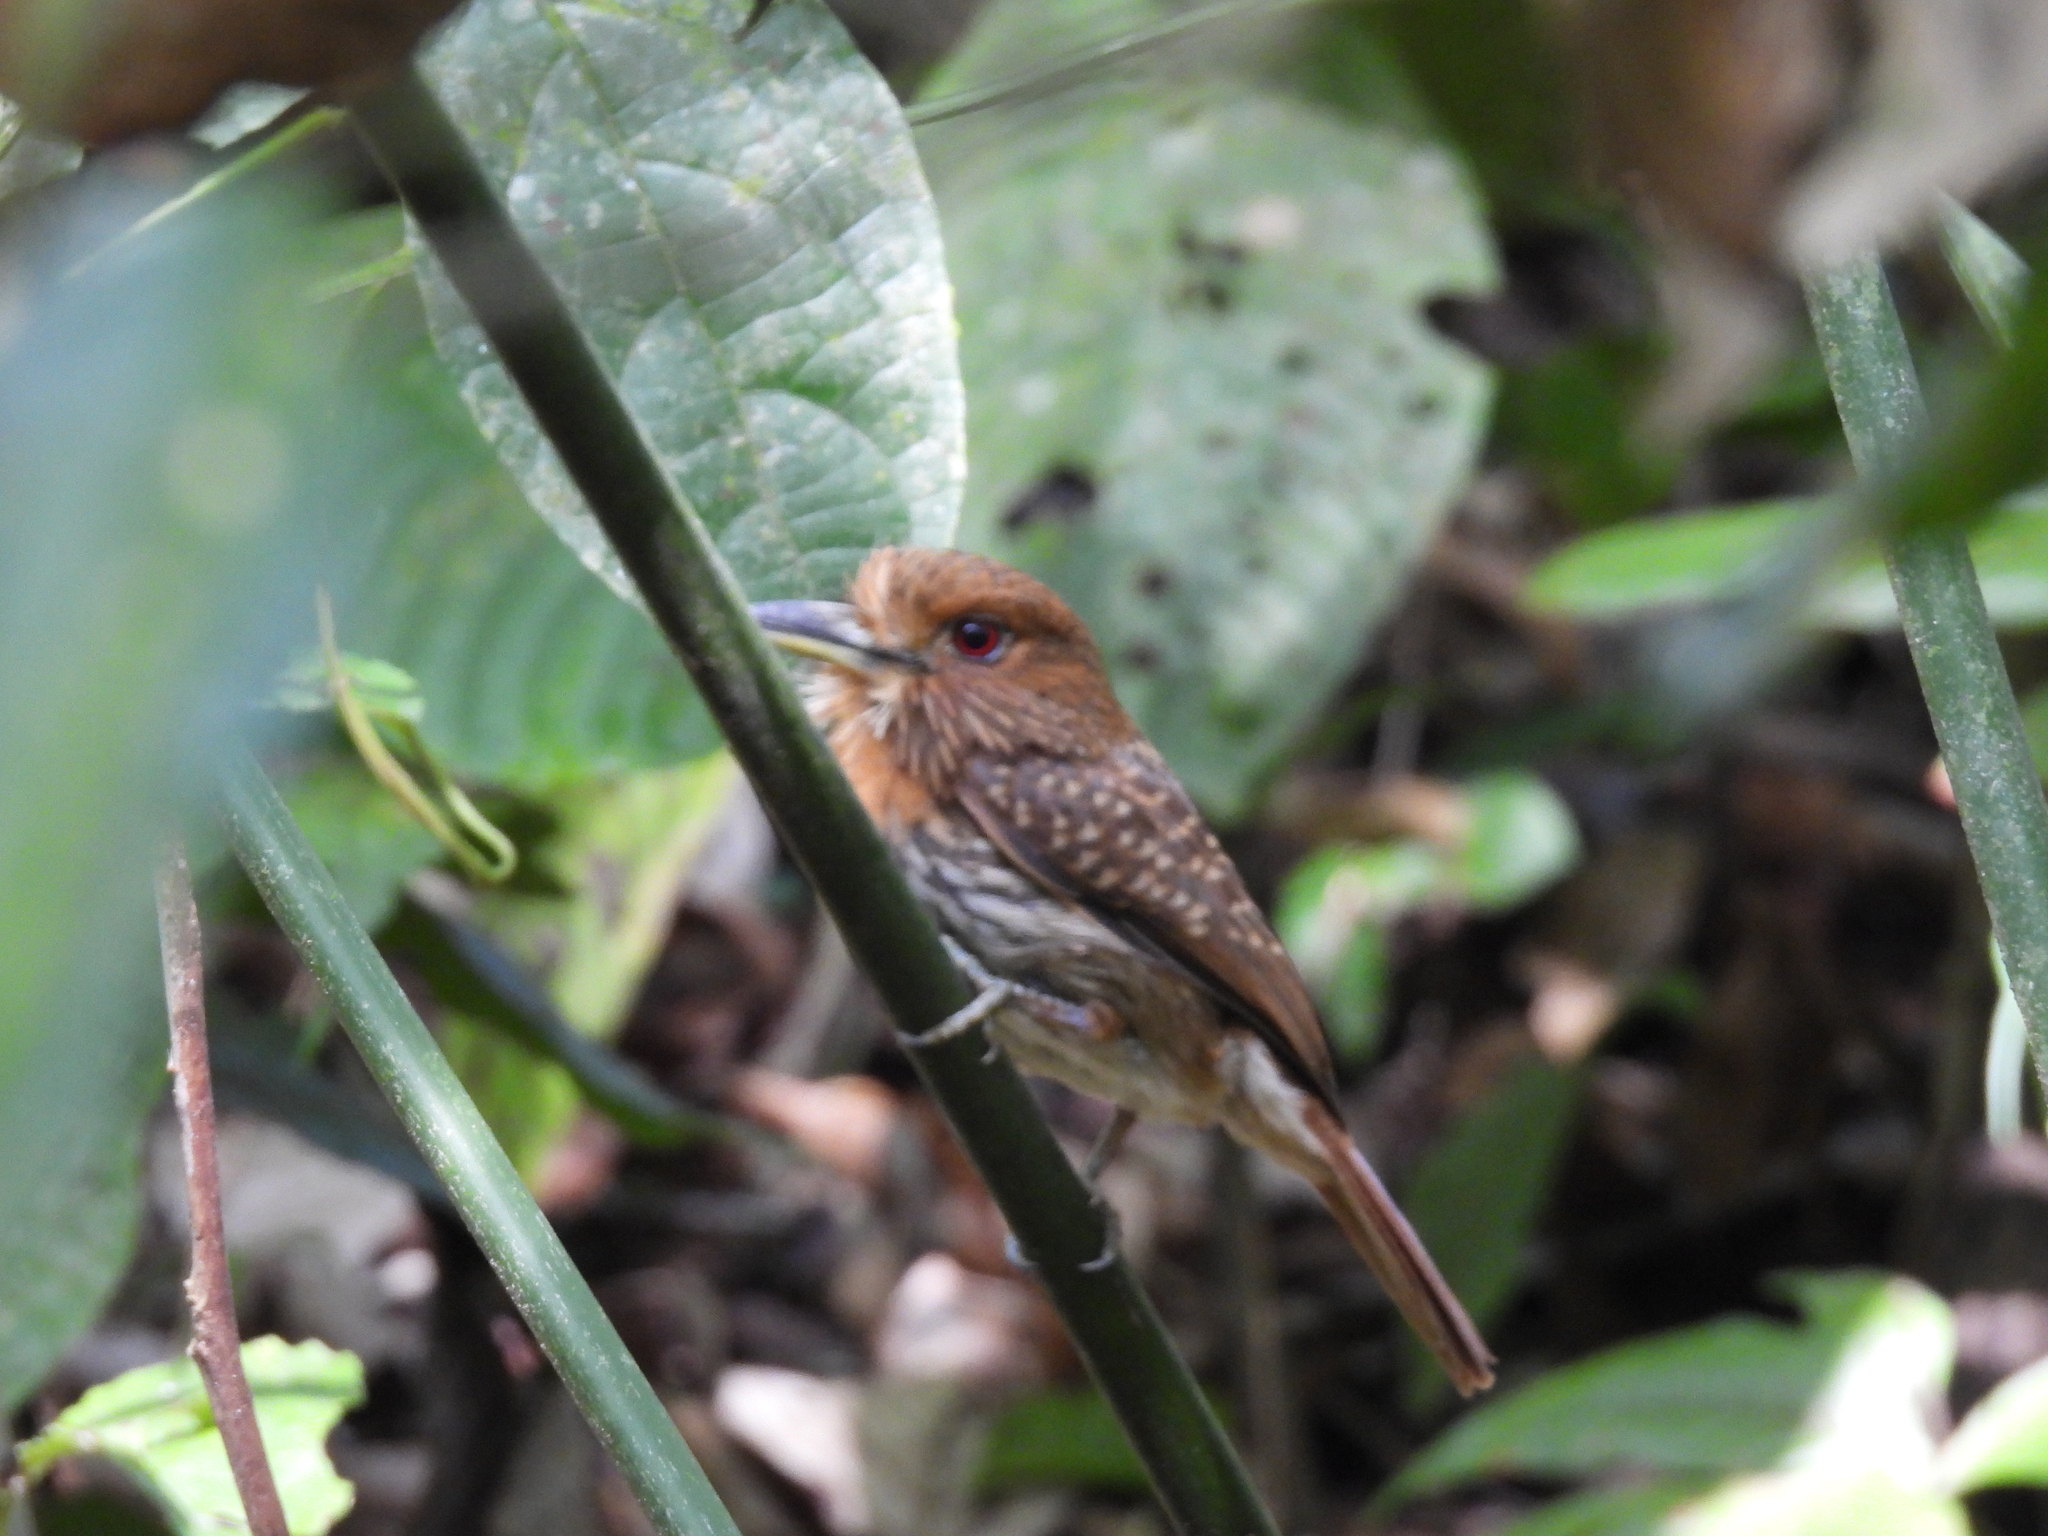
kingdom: Animalia
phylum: Chordata
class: Aves
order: Piciformes
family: Bucconidae
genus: Malacoptila
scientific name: Malacoptila panamensis
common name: White-whiskered puffbird
